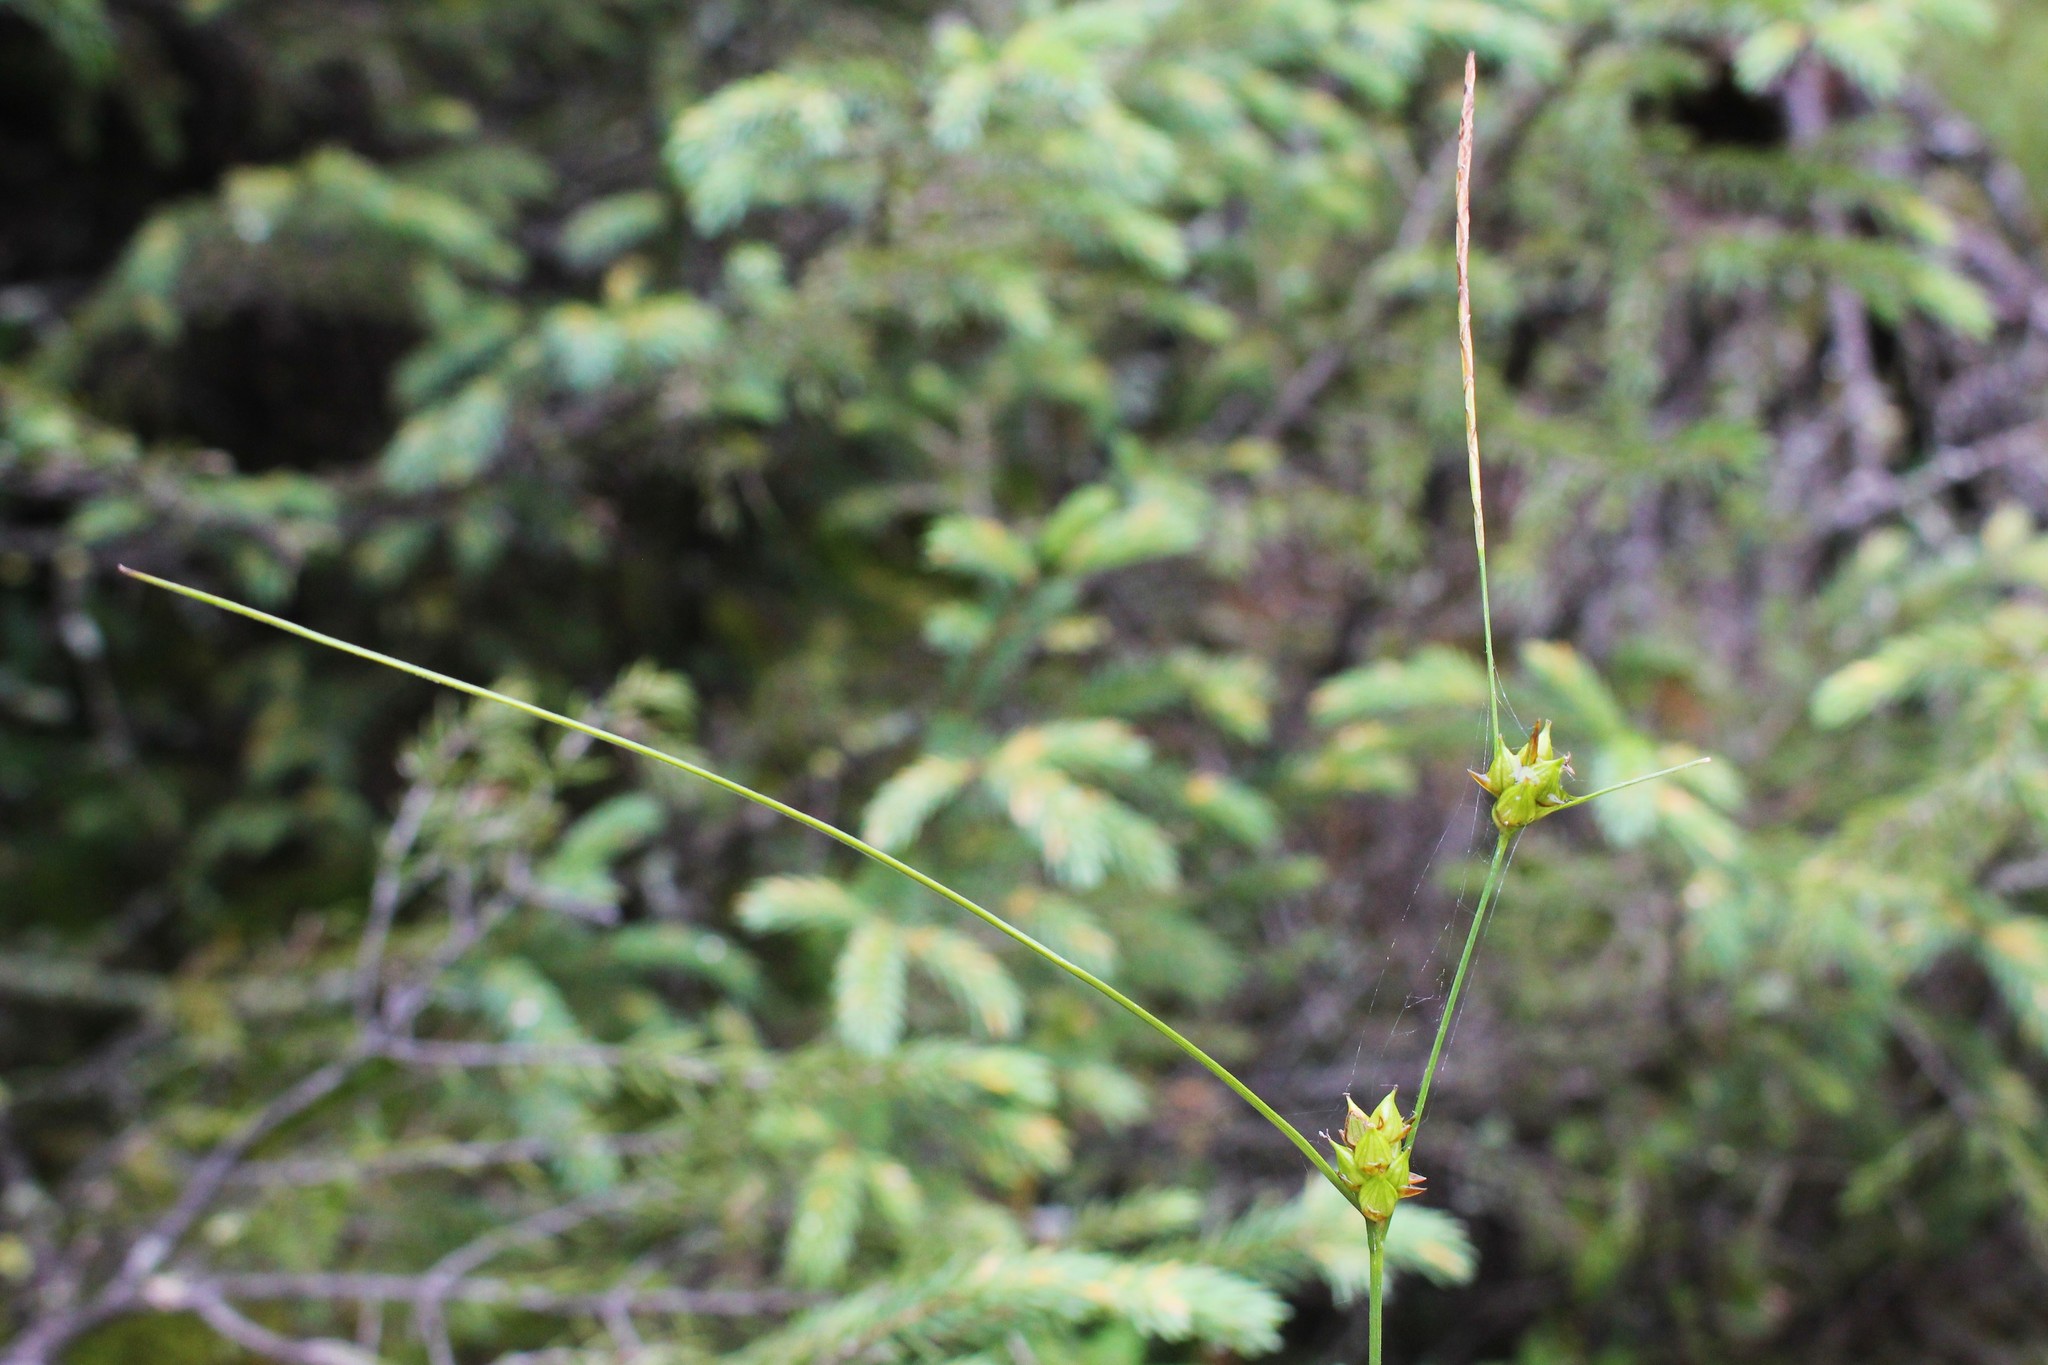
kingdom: Plantae
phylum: Tracheophyta
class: Liliopsida
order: Poales
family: Cyperaceae
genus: Carex
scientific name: Carex oligosperma
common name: Few-seed sedge
